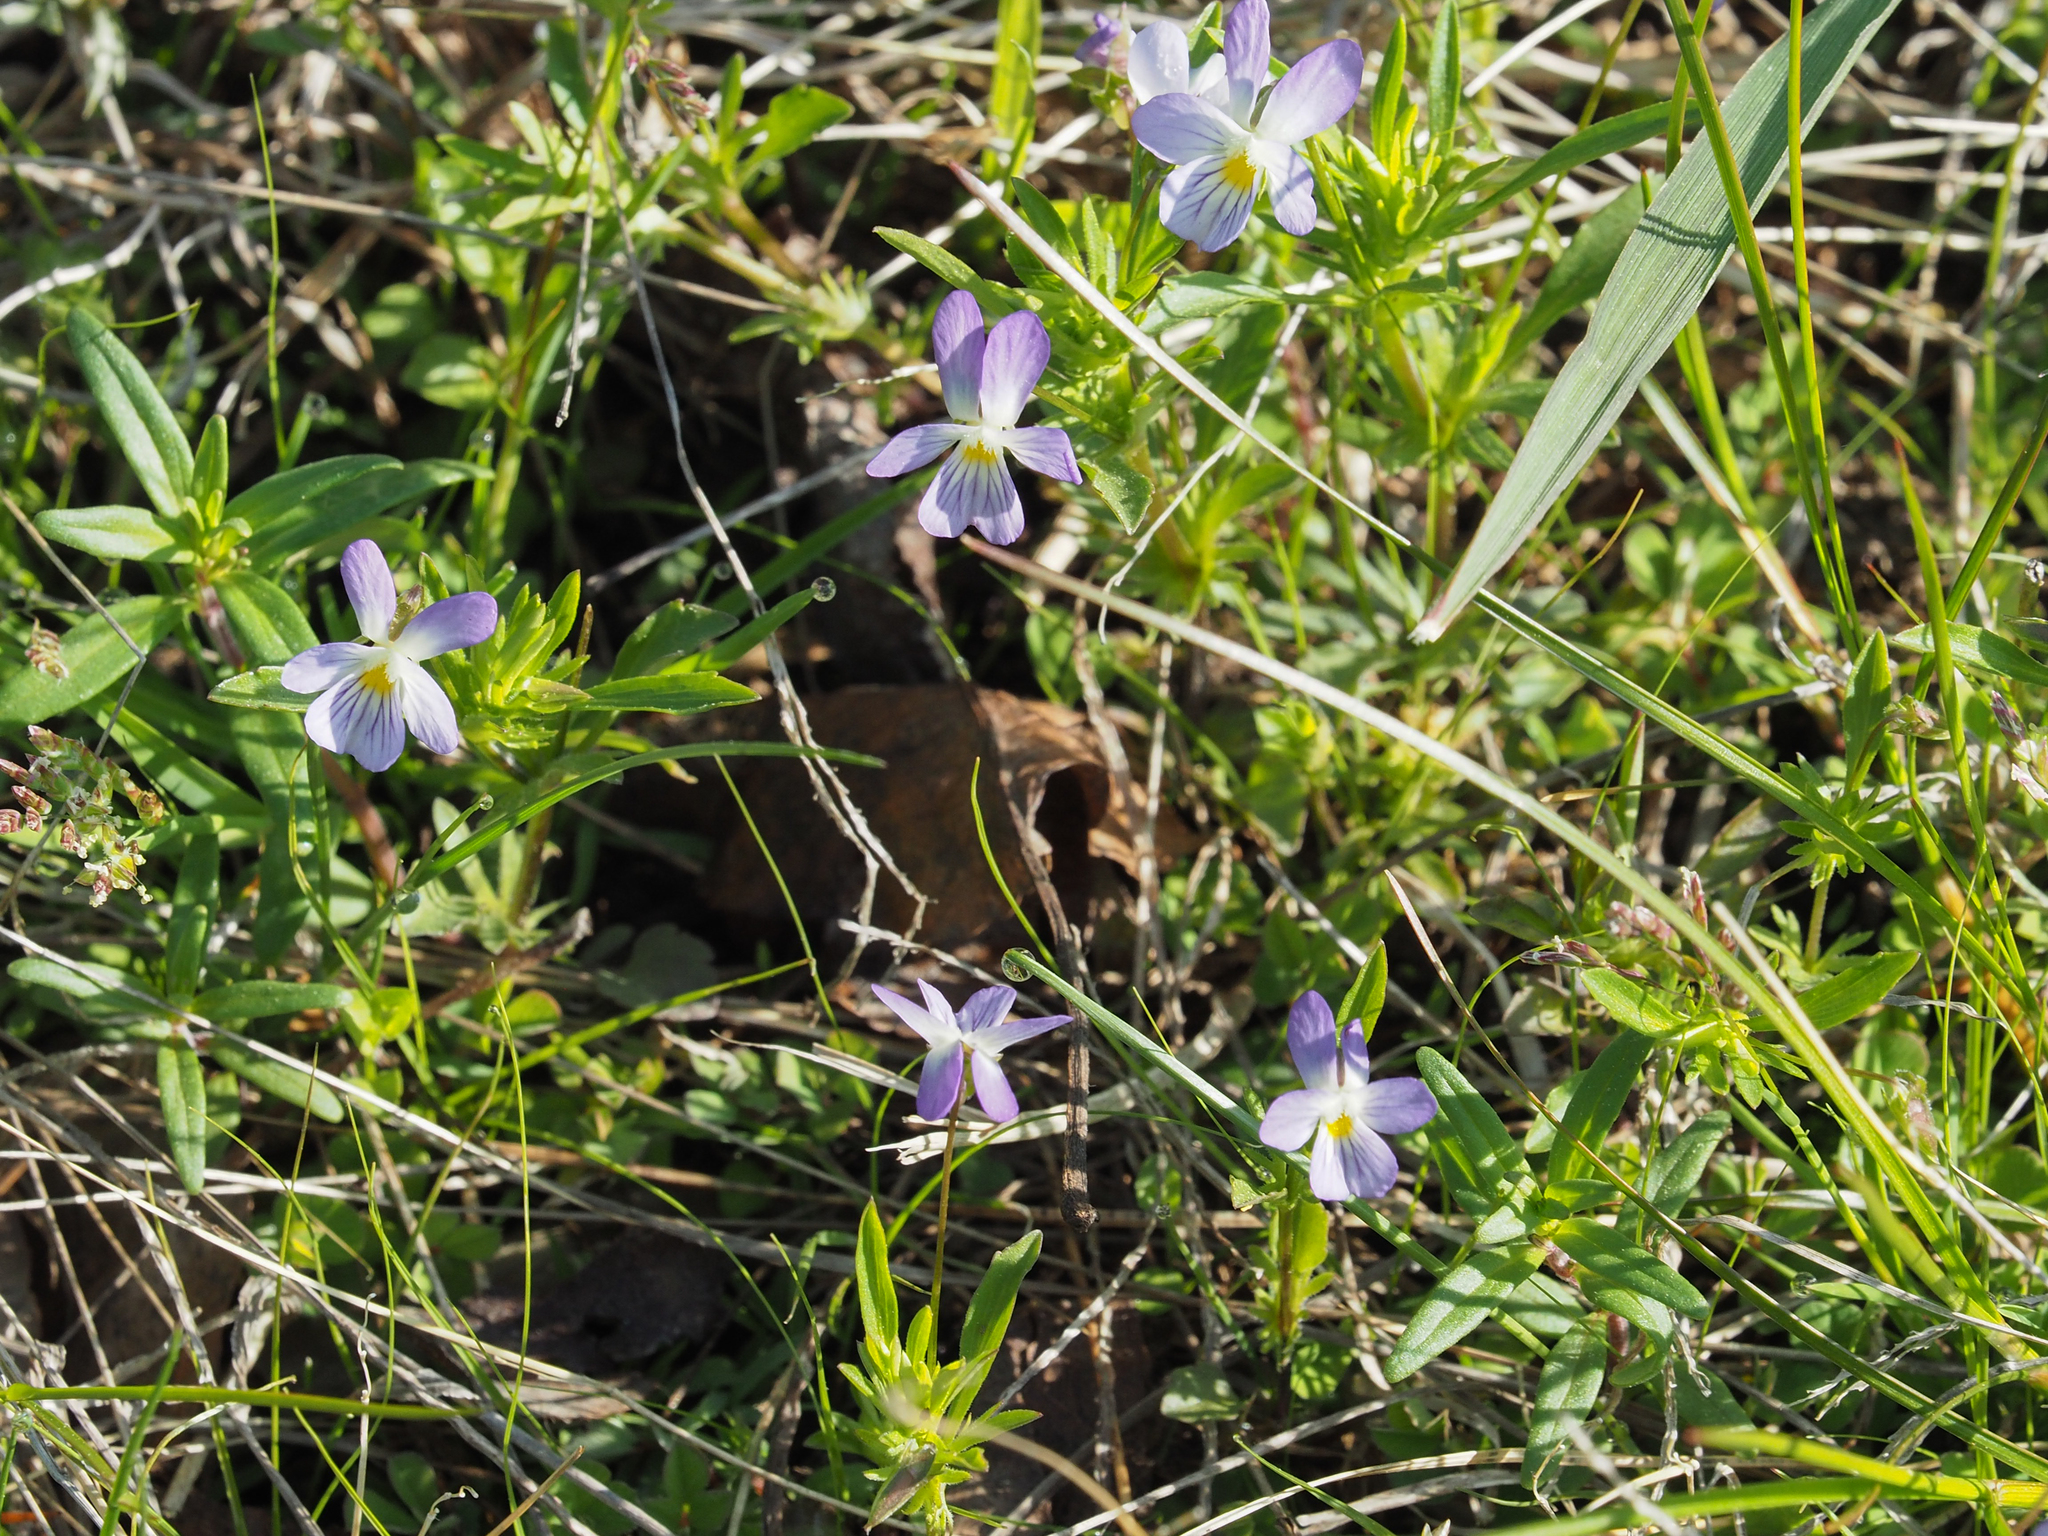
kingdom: Plantae
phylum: Tracheophyta
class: Magnoliopsida
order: Malpighiales
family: Violaceae
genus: Viola
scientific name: Viola rafinesquei
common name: American field pansy
